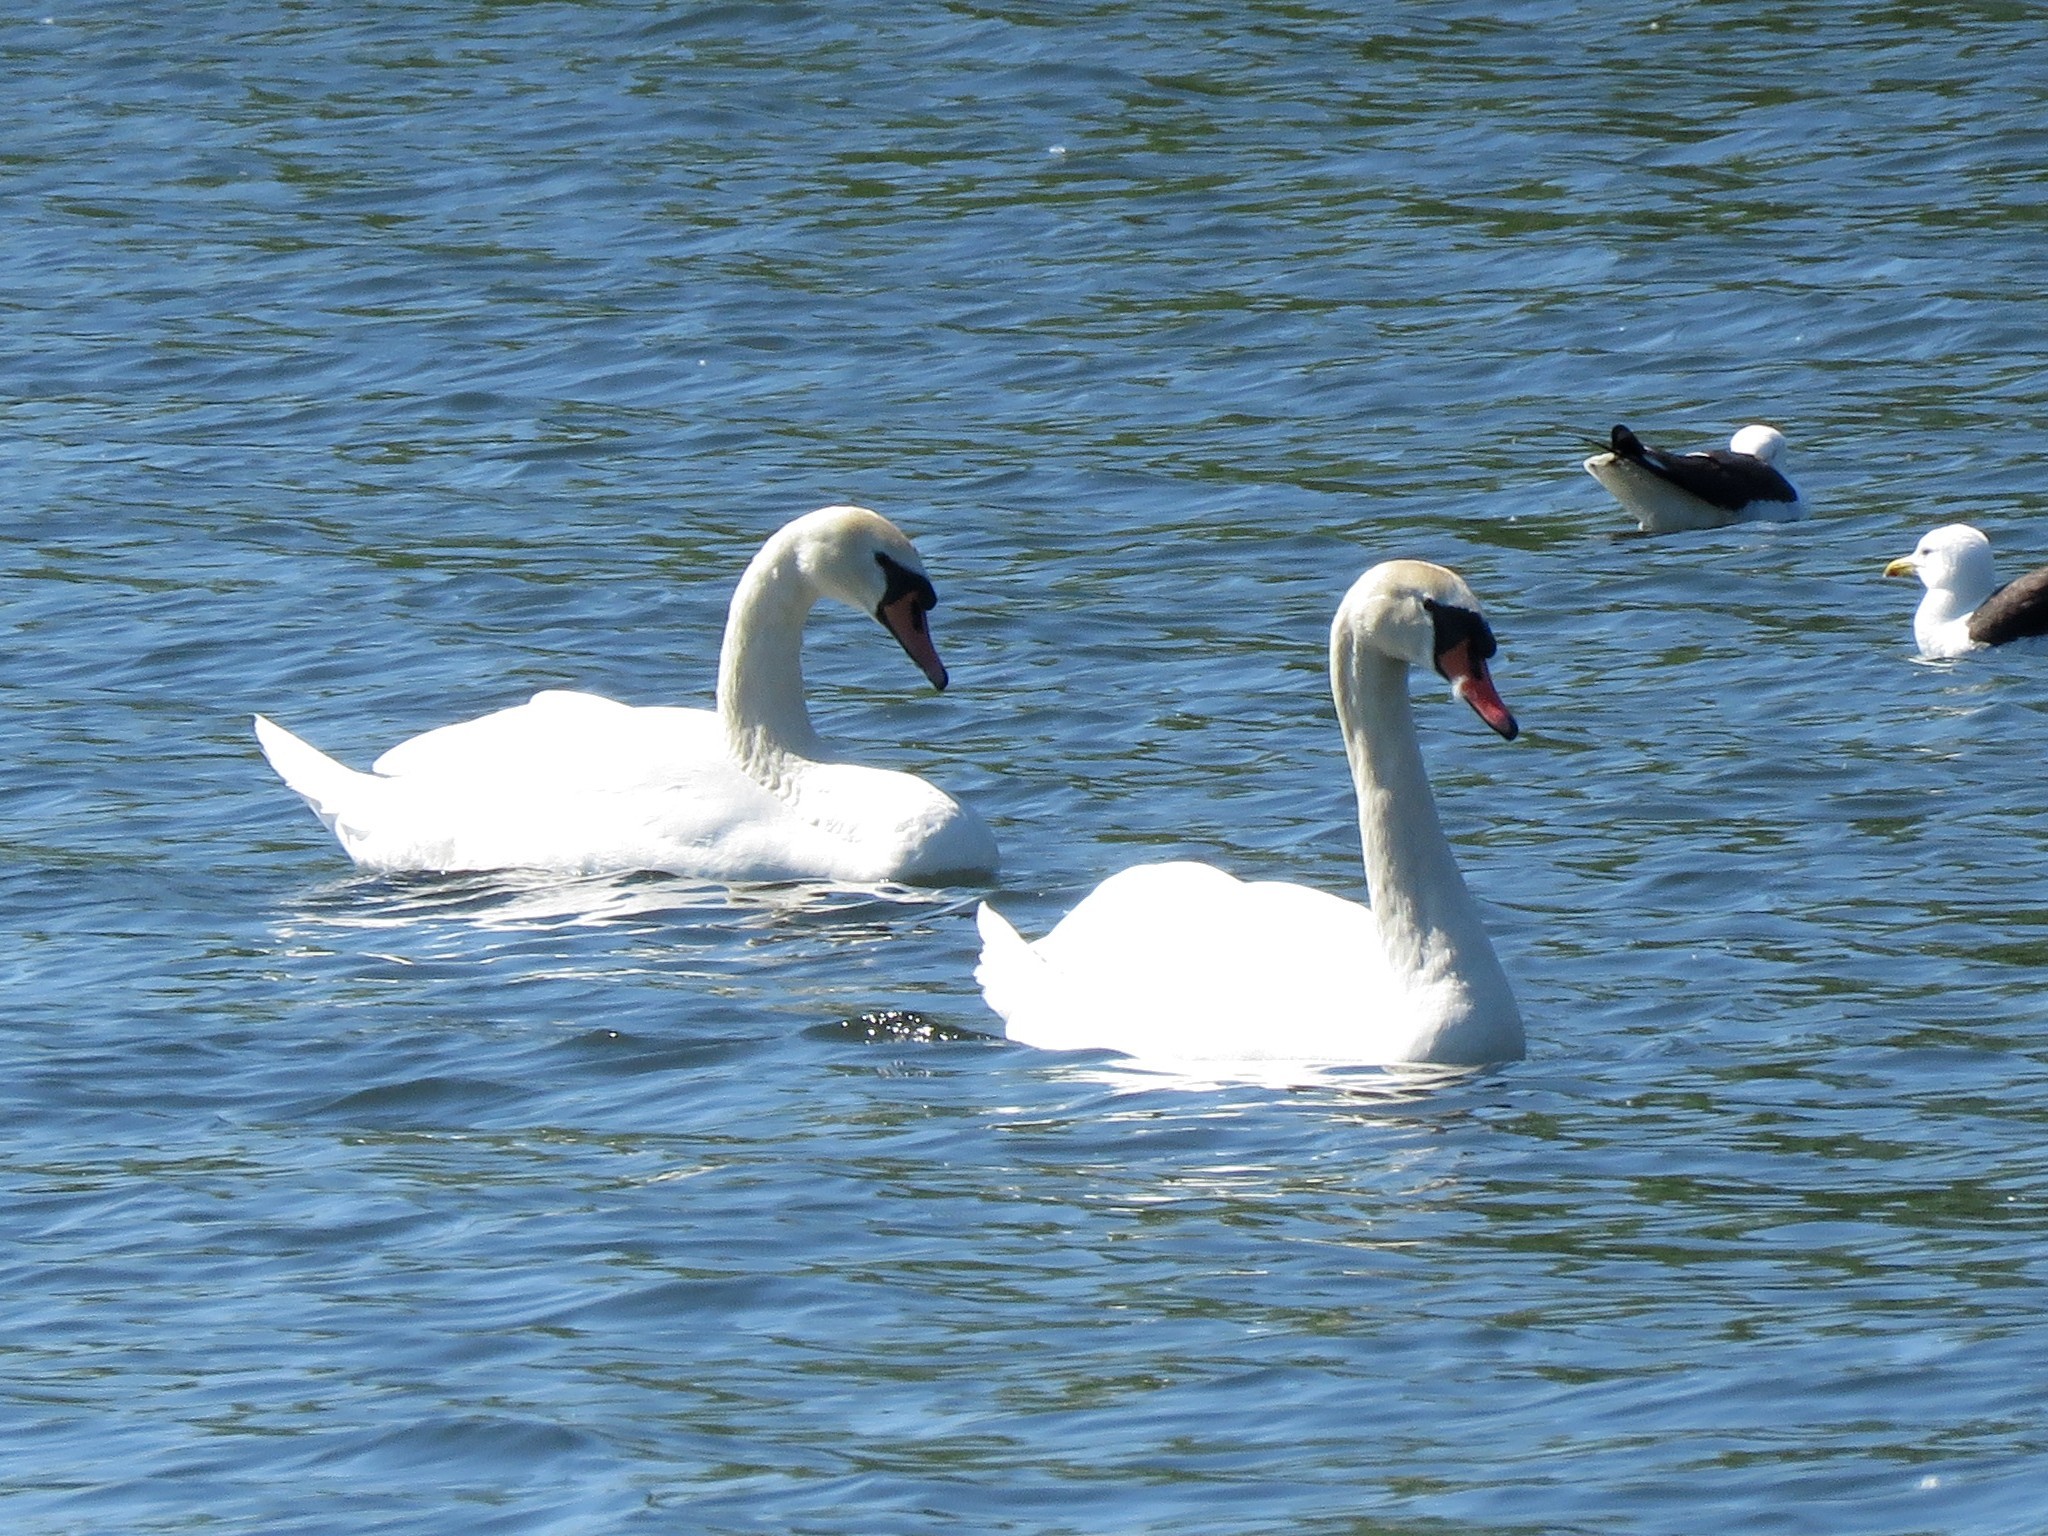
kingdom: Animalia
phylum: Chordata
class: Aves
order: Anseriformes
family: Anatidae
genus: Cygnus
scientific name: Cygnus olor
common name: Mute swan
